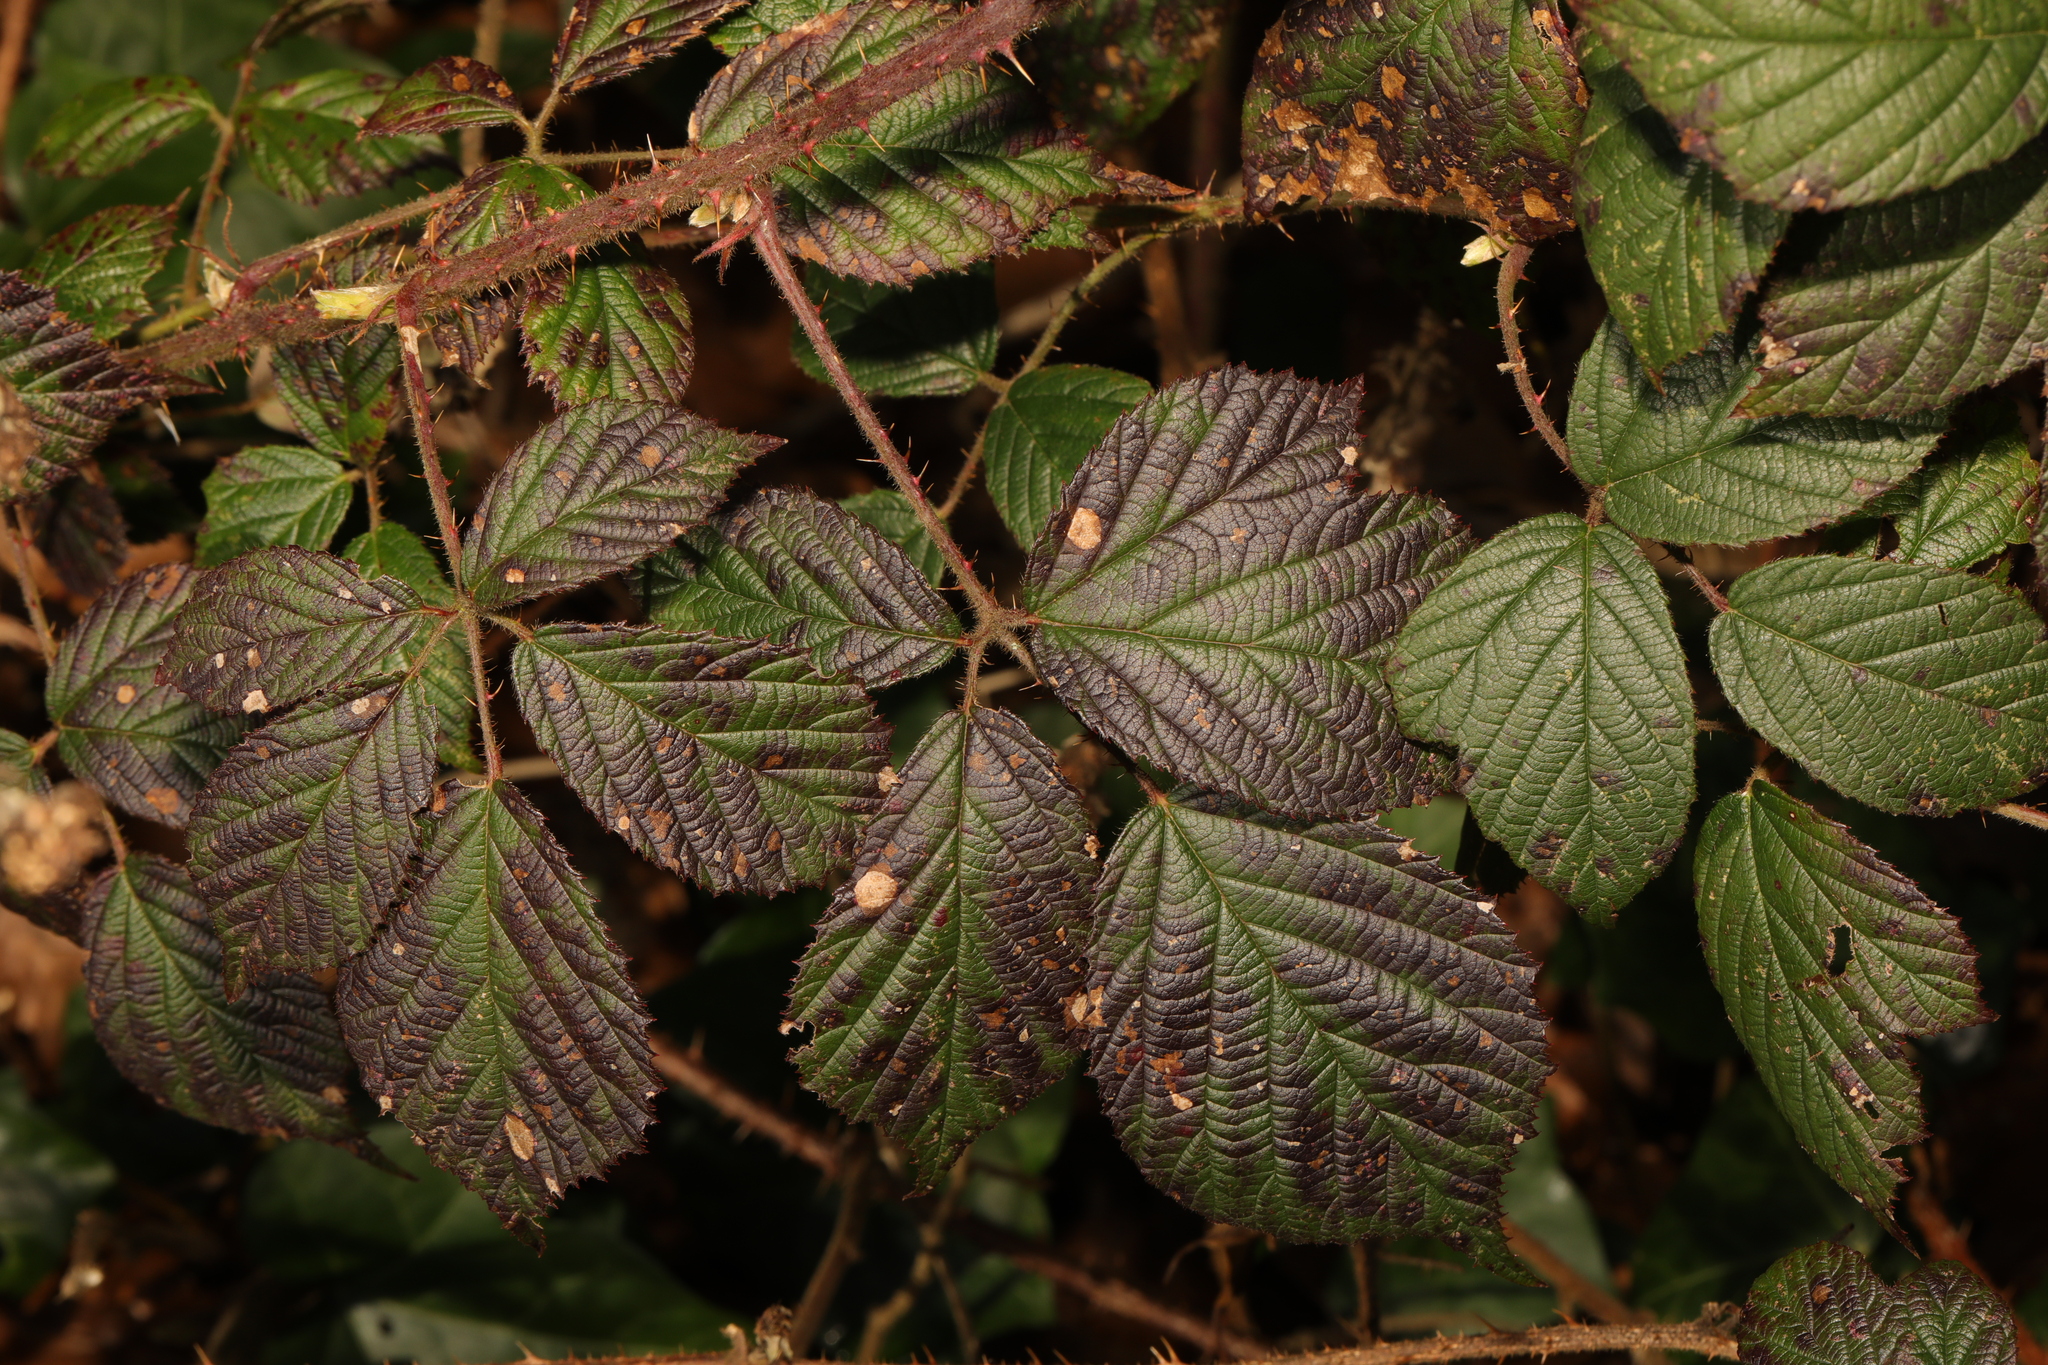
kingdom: Plantae
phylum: Tracheophyta
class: Magnoliopsida
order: Rosales
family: Rosaceae
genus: Rubus
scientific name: Rubus dasyphyllus
